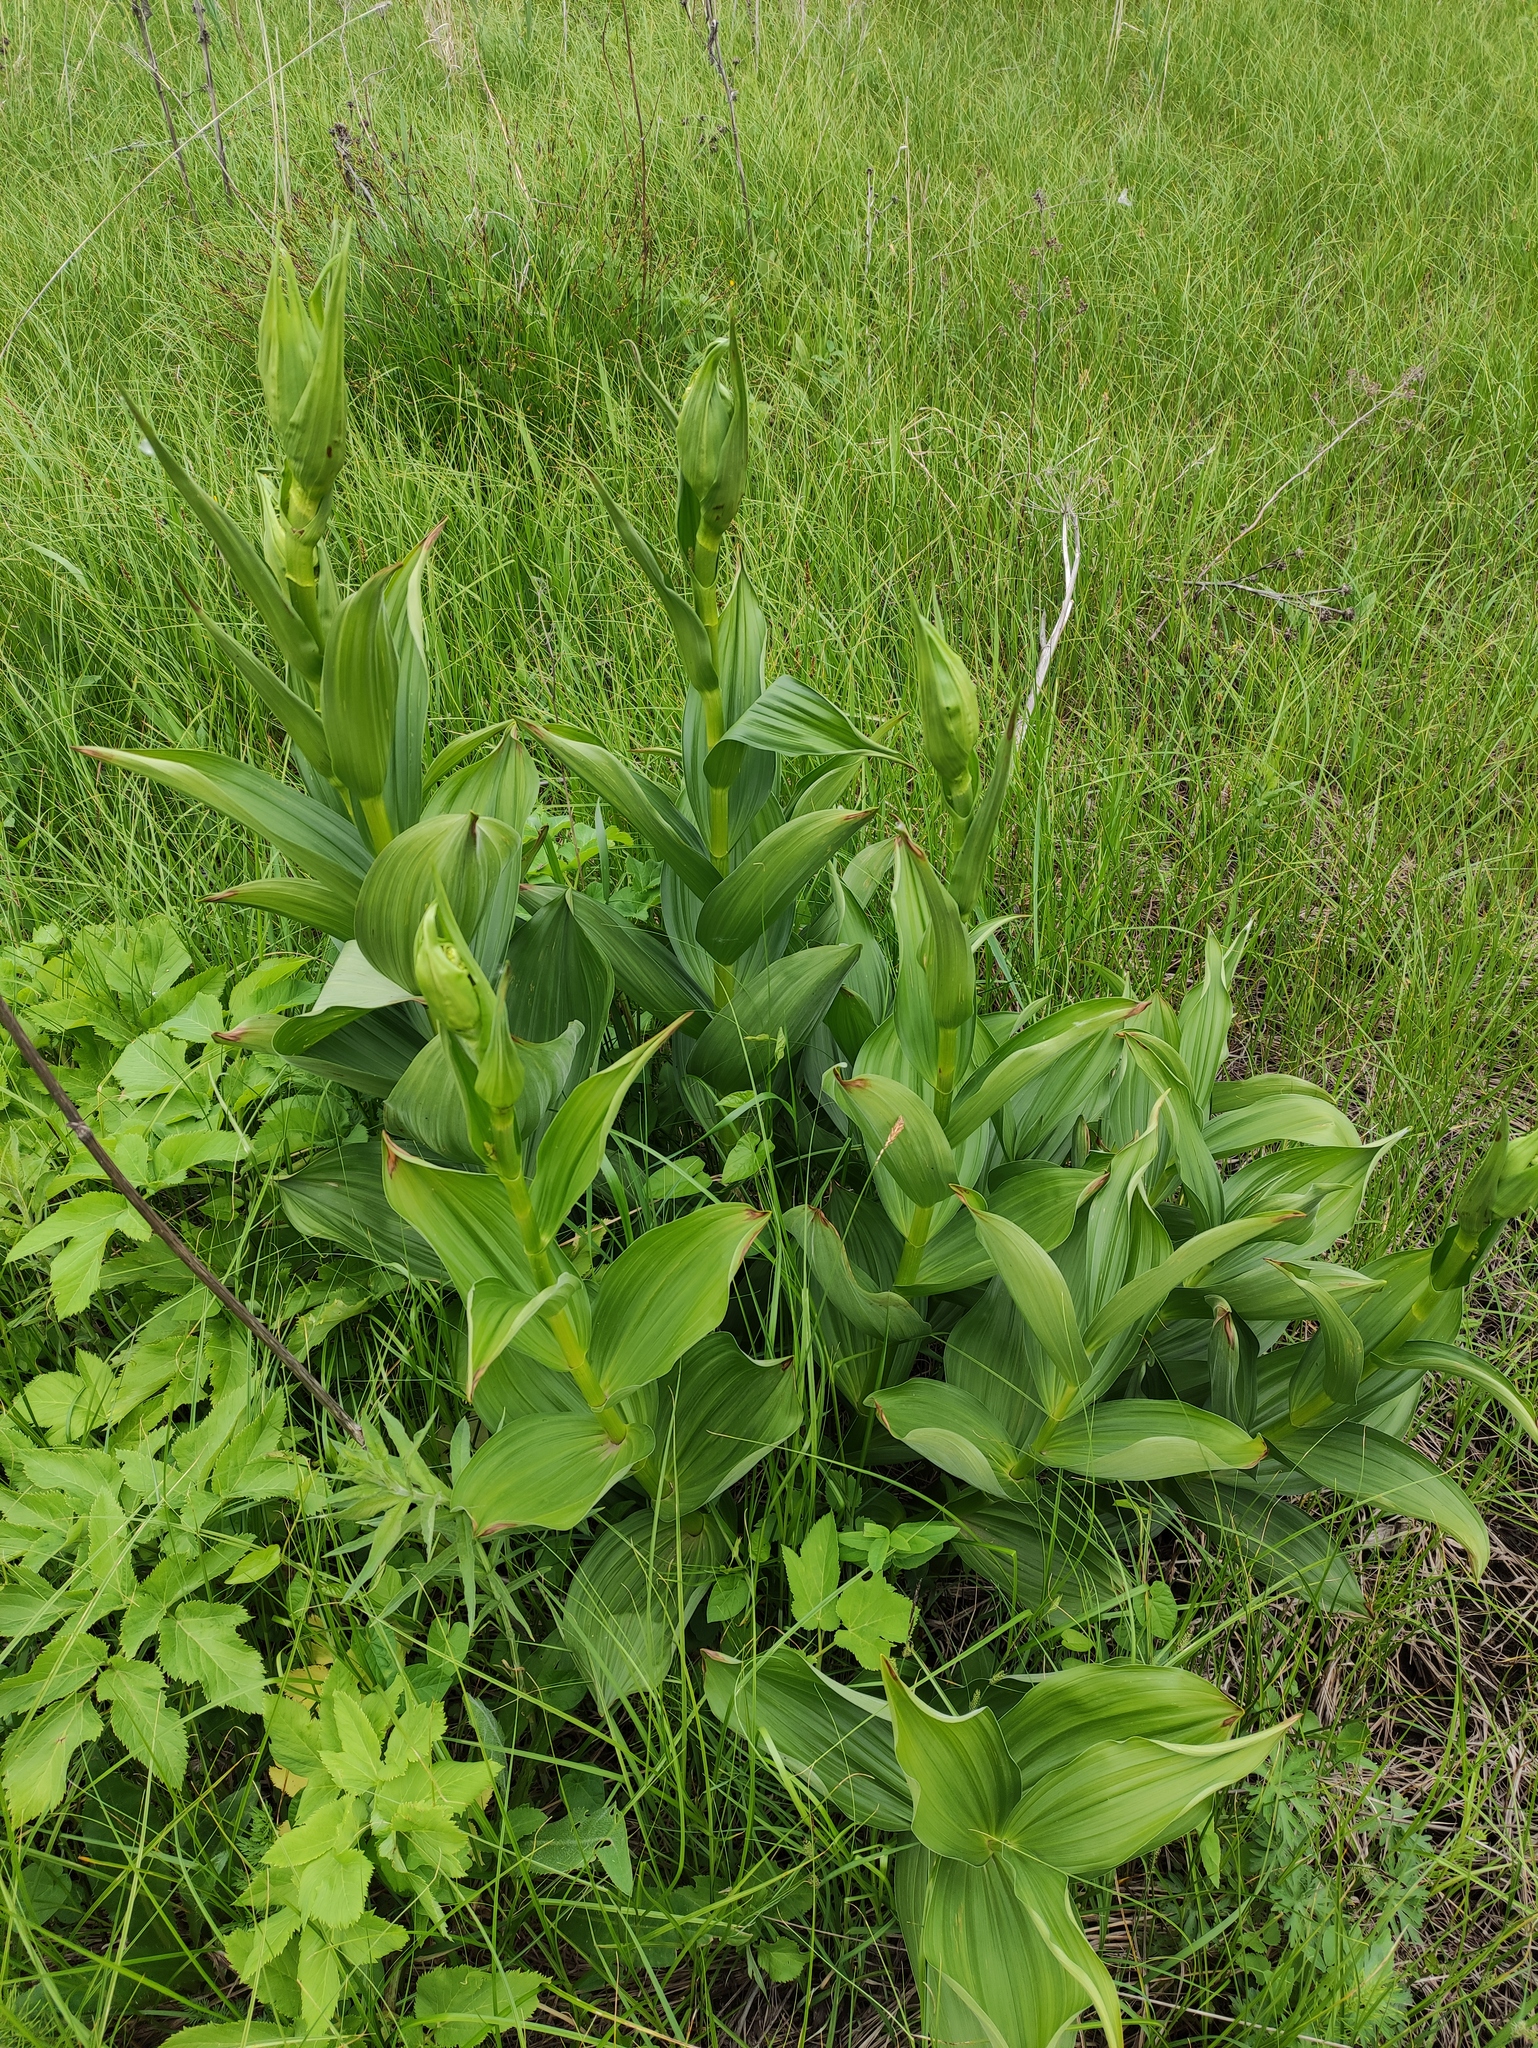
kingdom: Plantae
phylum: Tracheophyta
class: Liliopsida
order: Liliales
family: Melanthiaceae
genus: Veratrum
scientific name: Veratrum lobelianum
